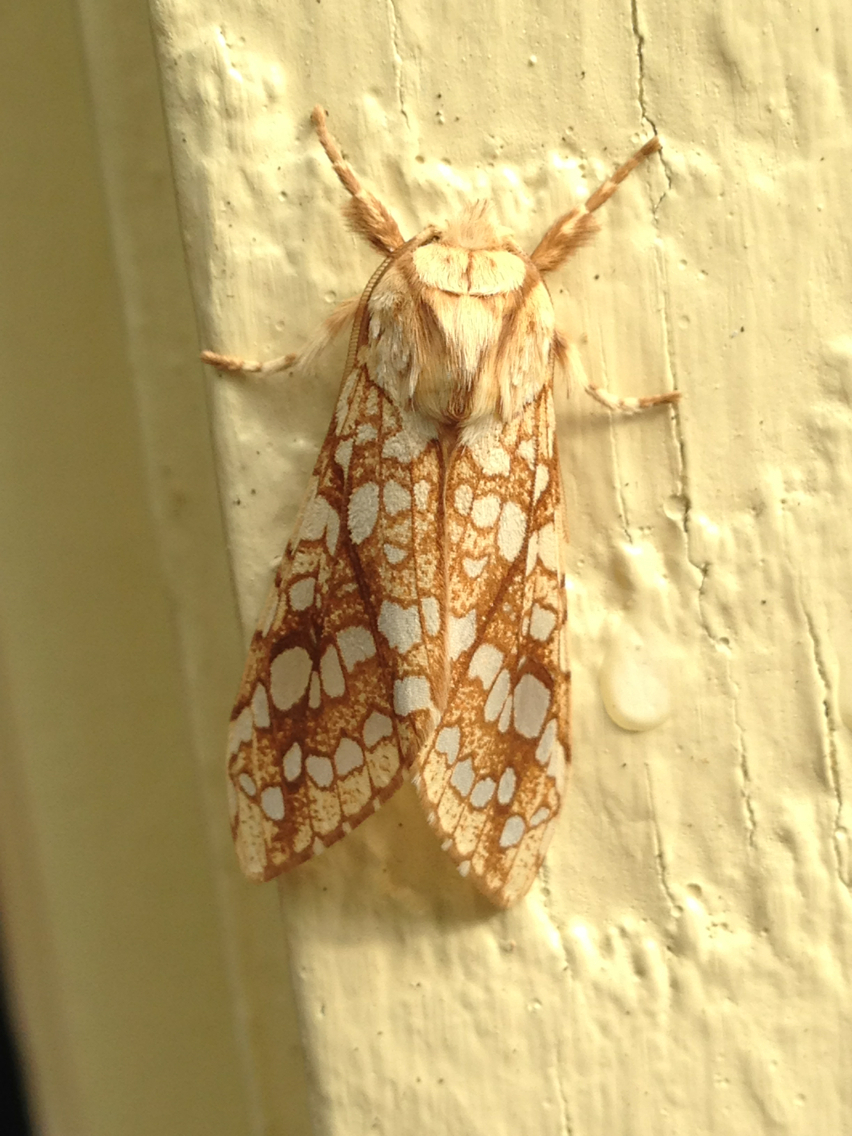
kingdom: Animalia
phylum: Arthropoda
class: Insecta
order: Lepidoptera
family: Erebidae
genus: Lophocampa
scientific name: Lophocampa caryae
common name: Hickory tussock moth
